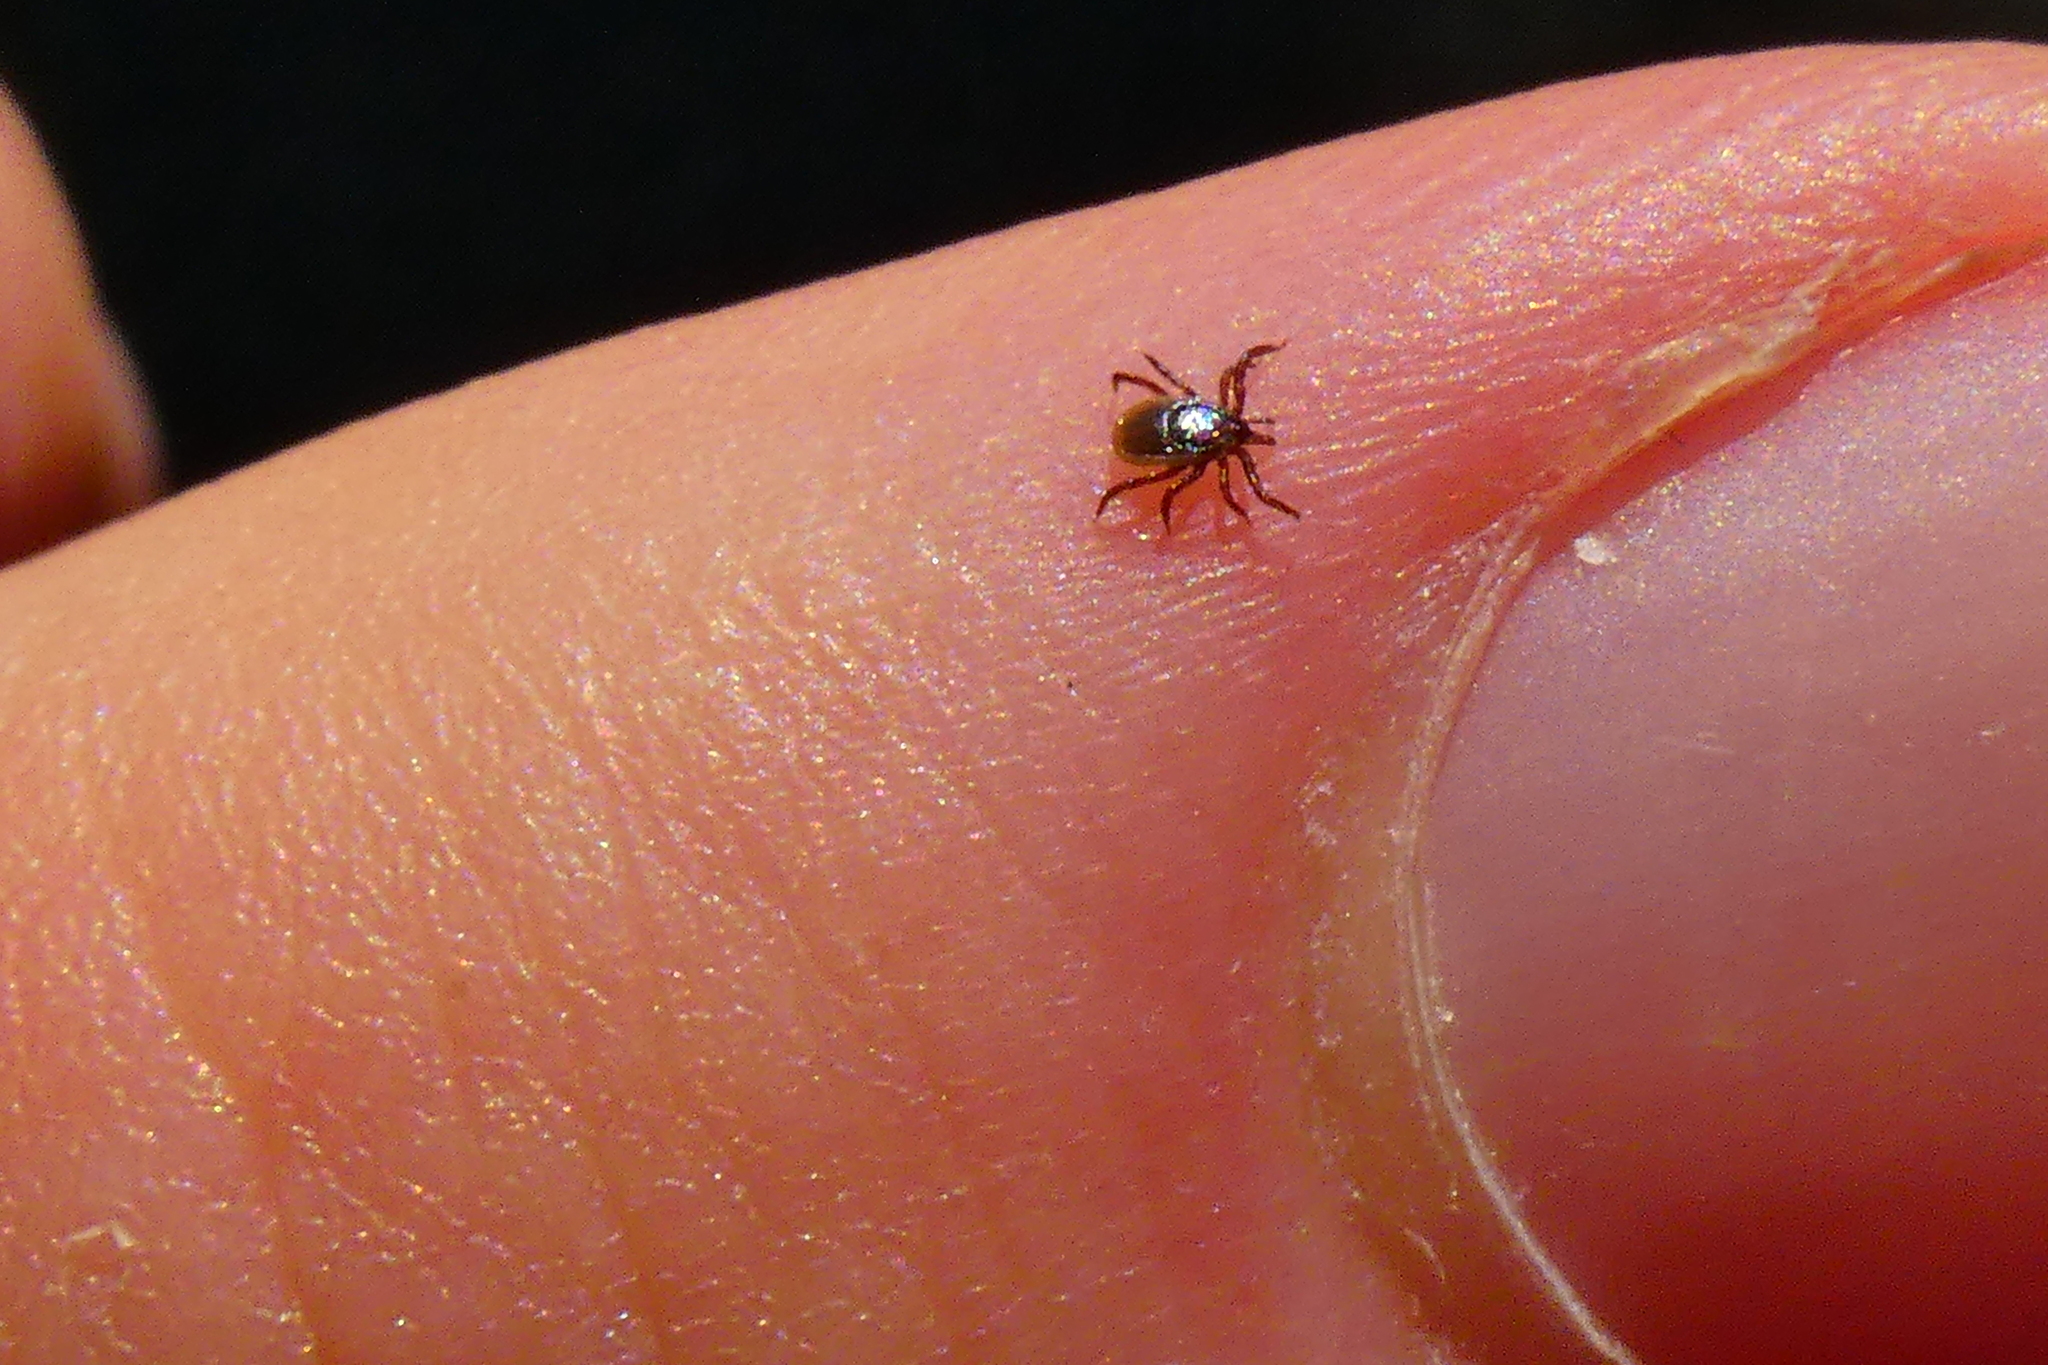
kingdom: Animalia
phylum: Arthropoda
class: Arachnida
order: Ixodida
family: Ixodidae
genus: Ixodes
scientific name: Ixodes ricinus
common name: Castor bean tick
